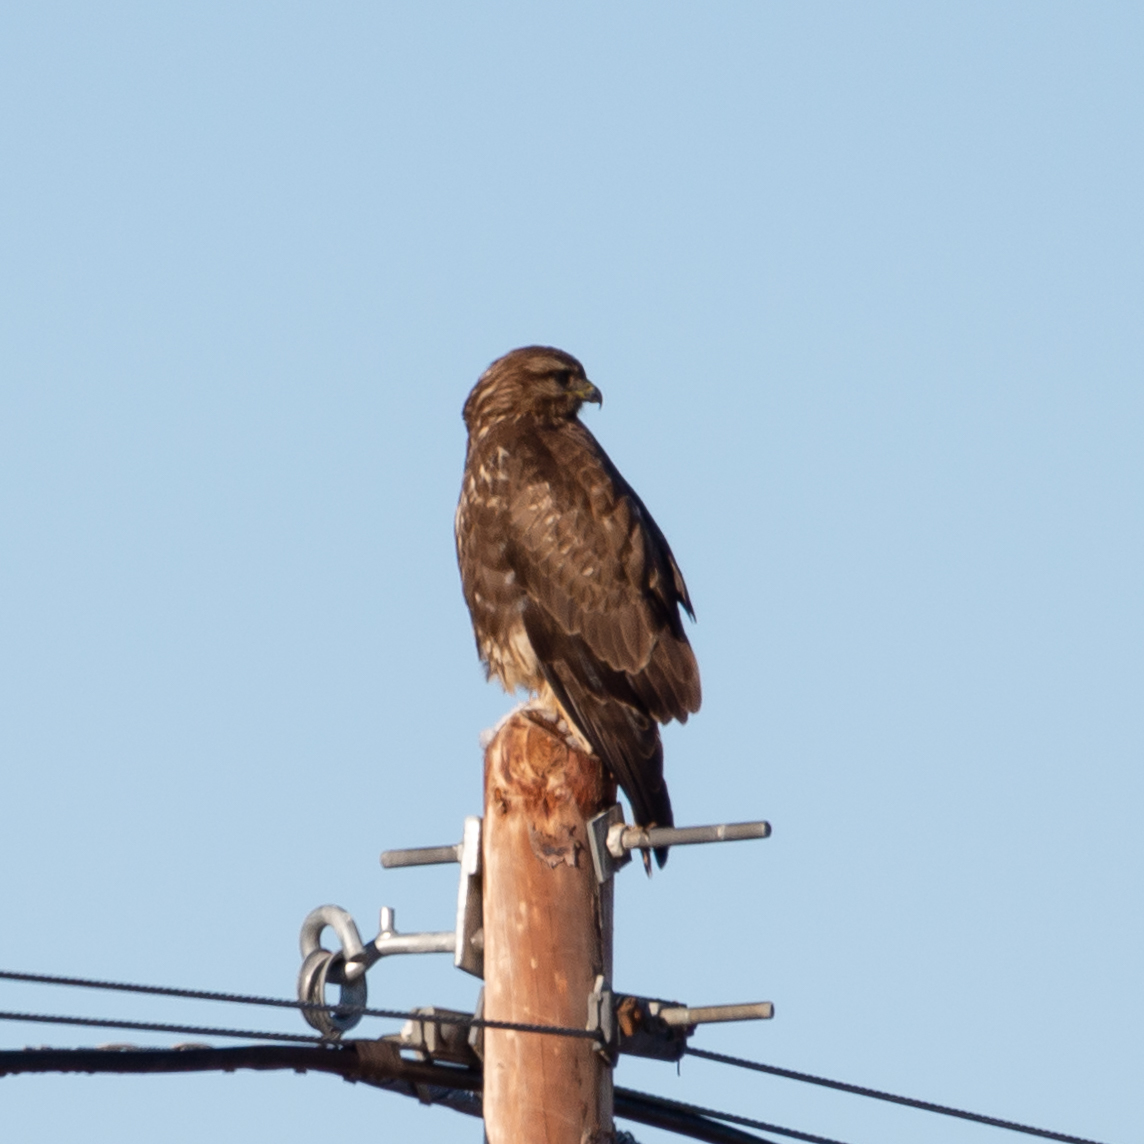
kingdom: Animalia
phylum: Chordata
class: Aves
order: Accipitriformes
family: Accipitridae
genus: Buteo
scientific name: Buteo buteo
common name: Common buzzard
